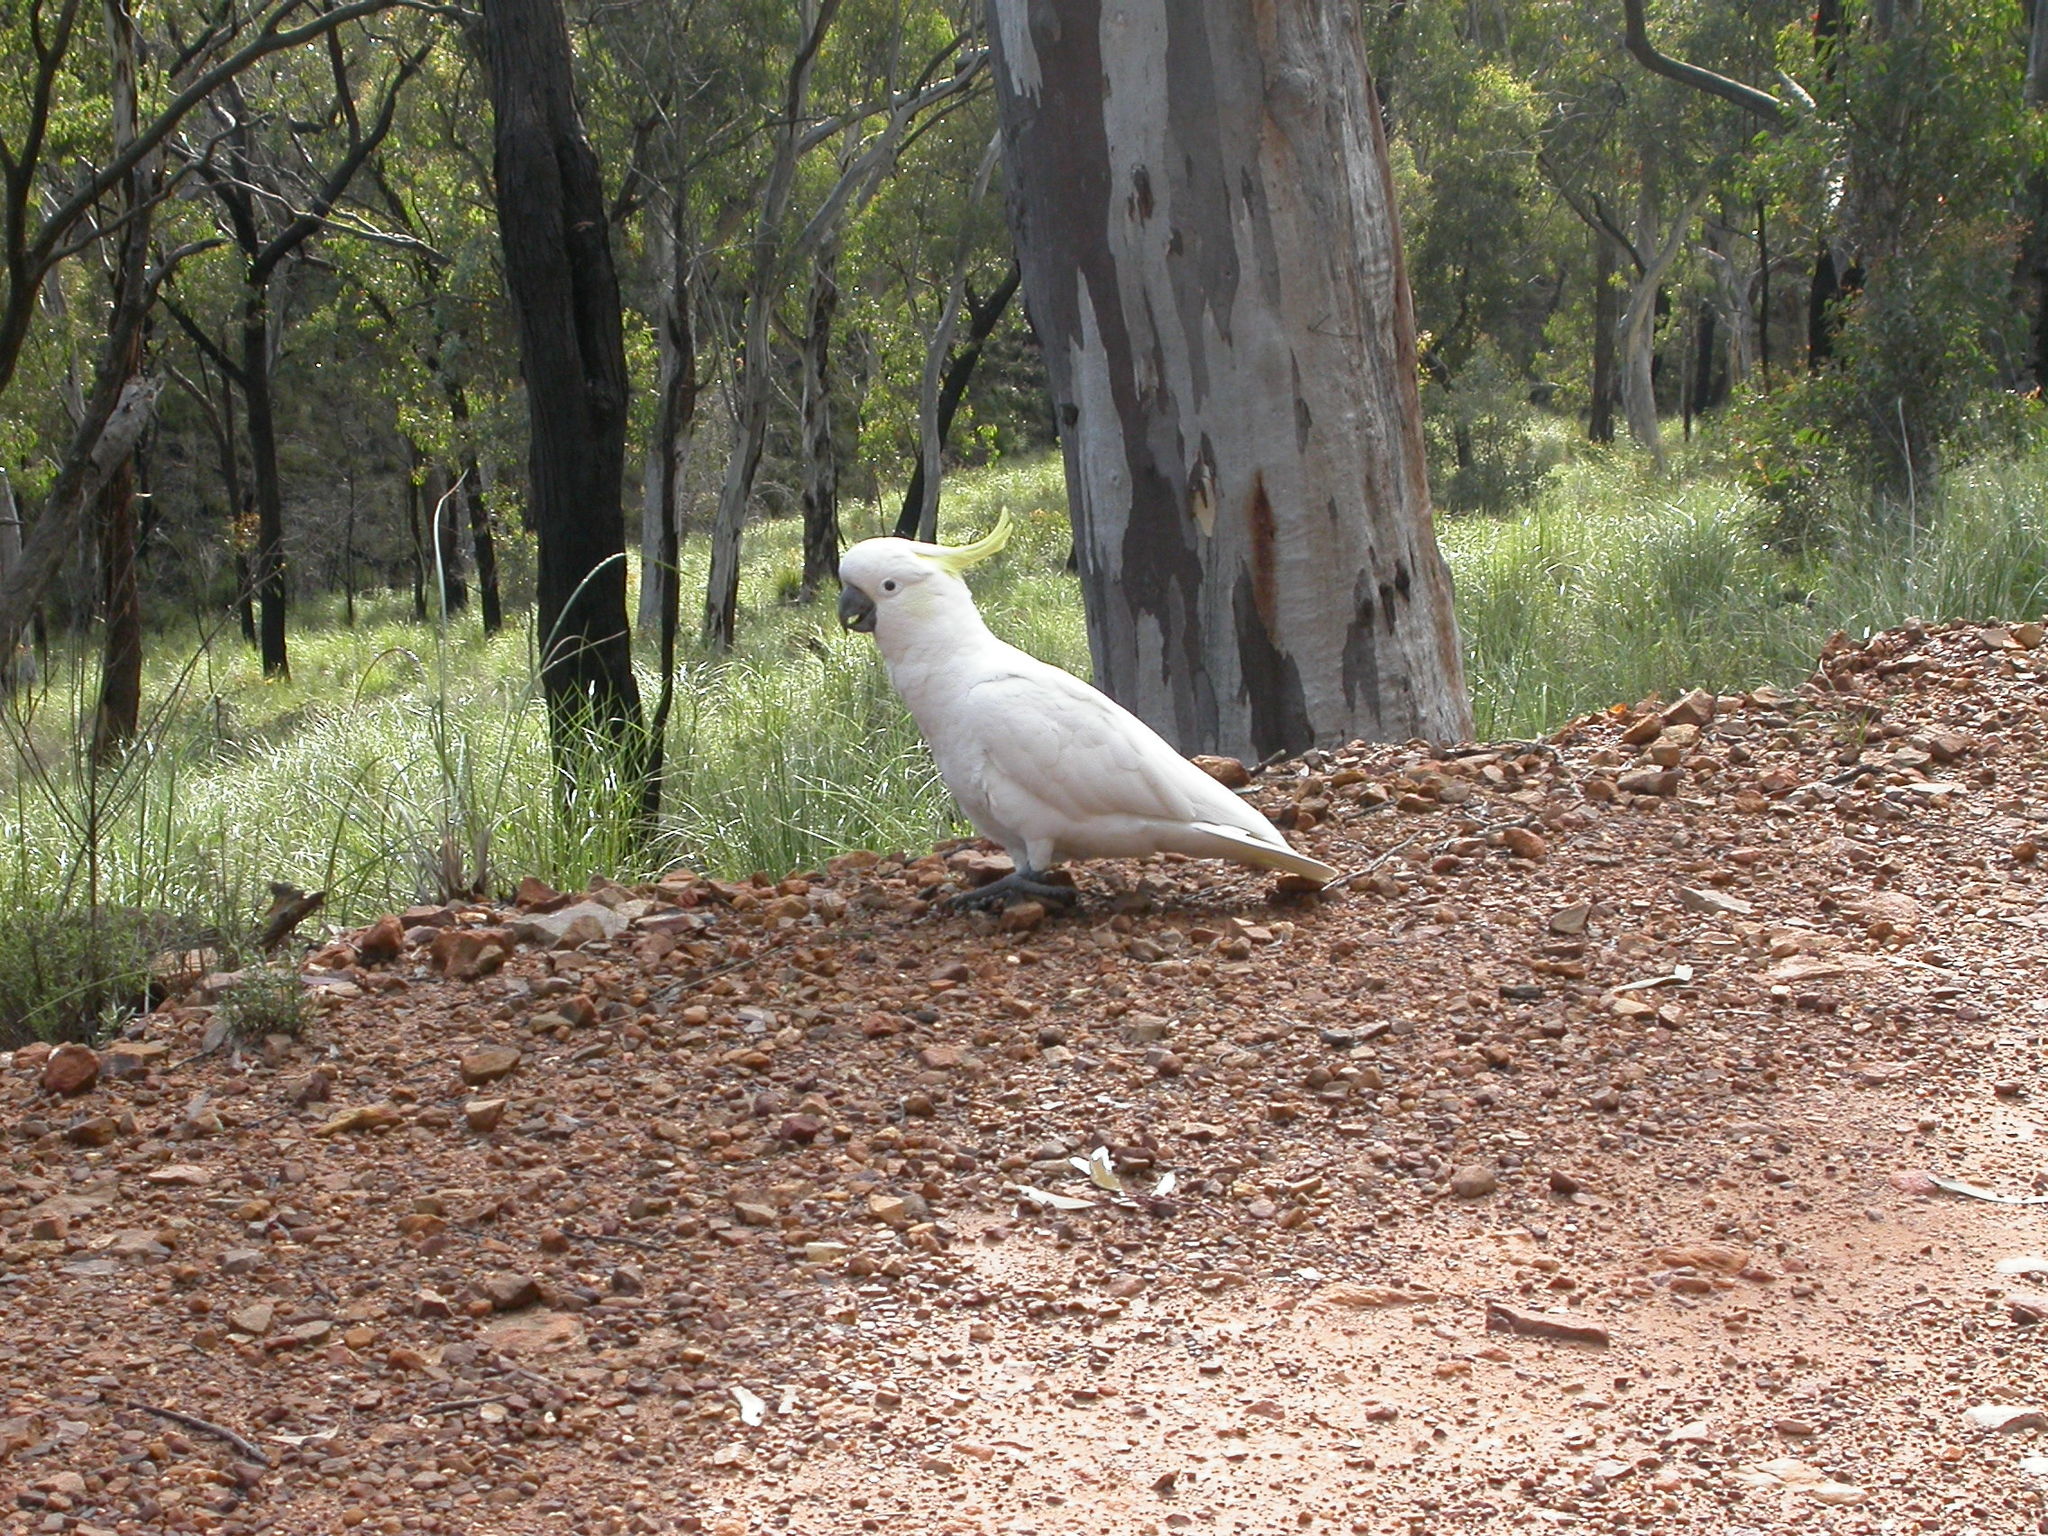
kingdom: Animalia
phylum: Chordata
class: Aves
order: Psittaciformes
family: Psittacidae
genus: Cacatua
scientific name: Cacatua galerita
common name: Sulphur-crested cockatoo
